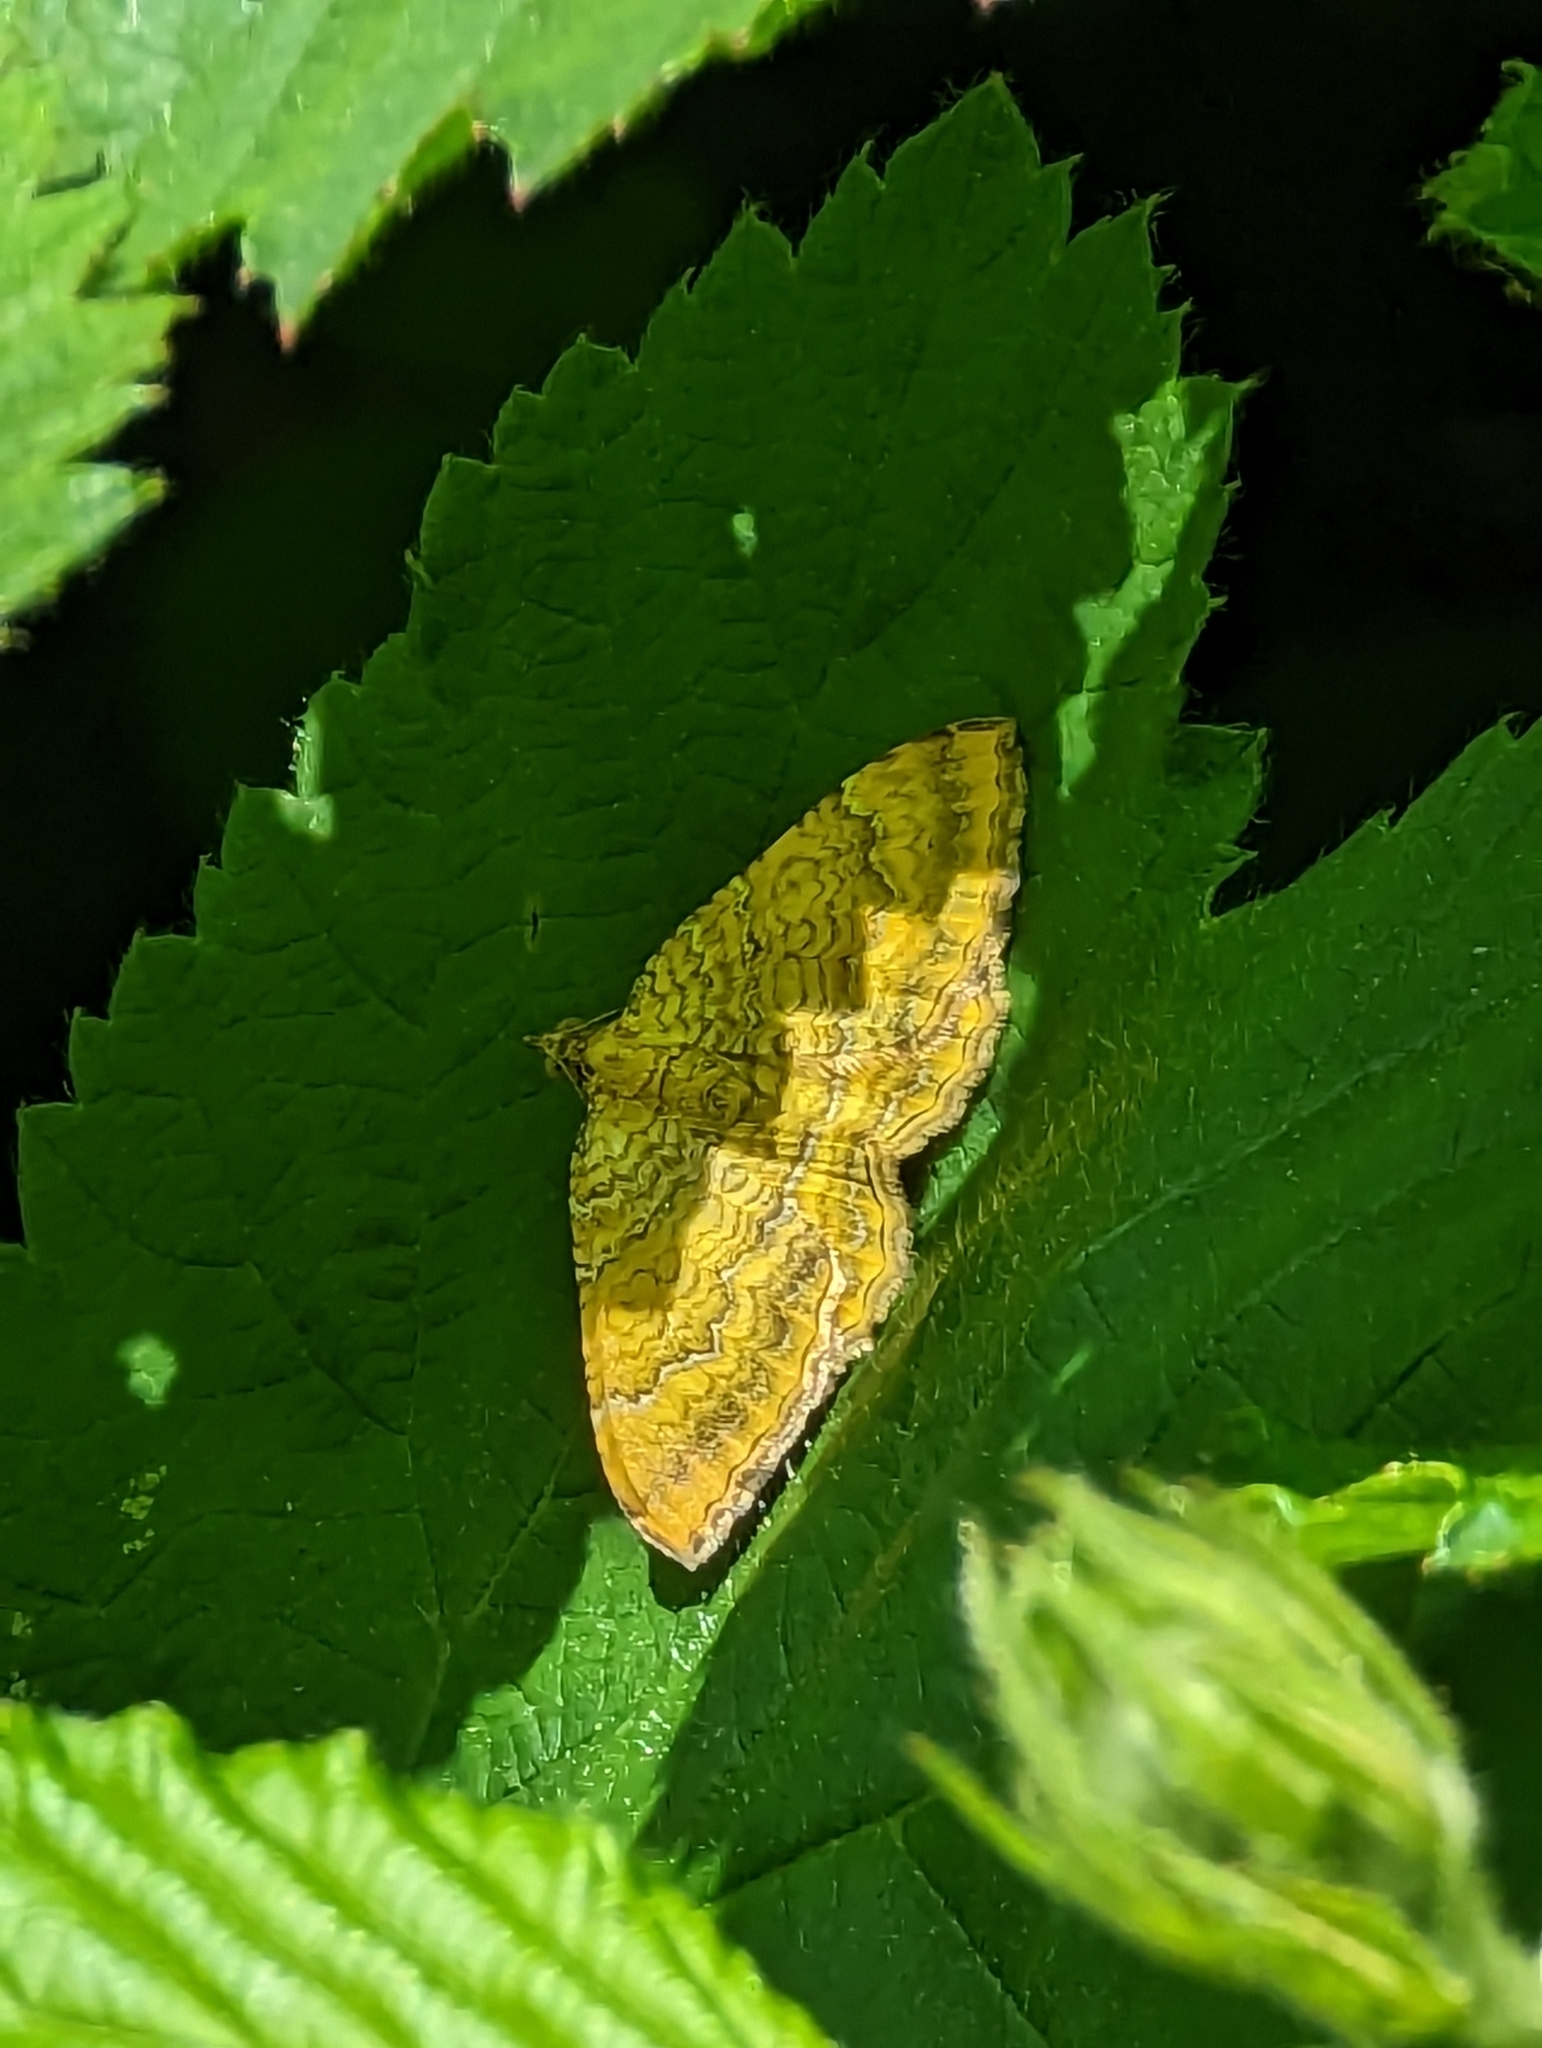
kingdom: Animalia
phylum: Arthropoda
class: Insecta
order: Lepidoptera
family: Geometridae
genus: Camptogramma
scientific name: Camptogramma bilineata
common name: Yellow shell
